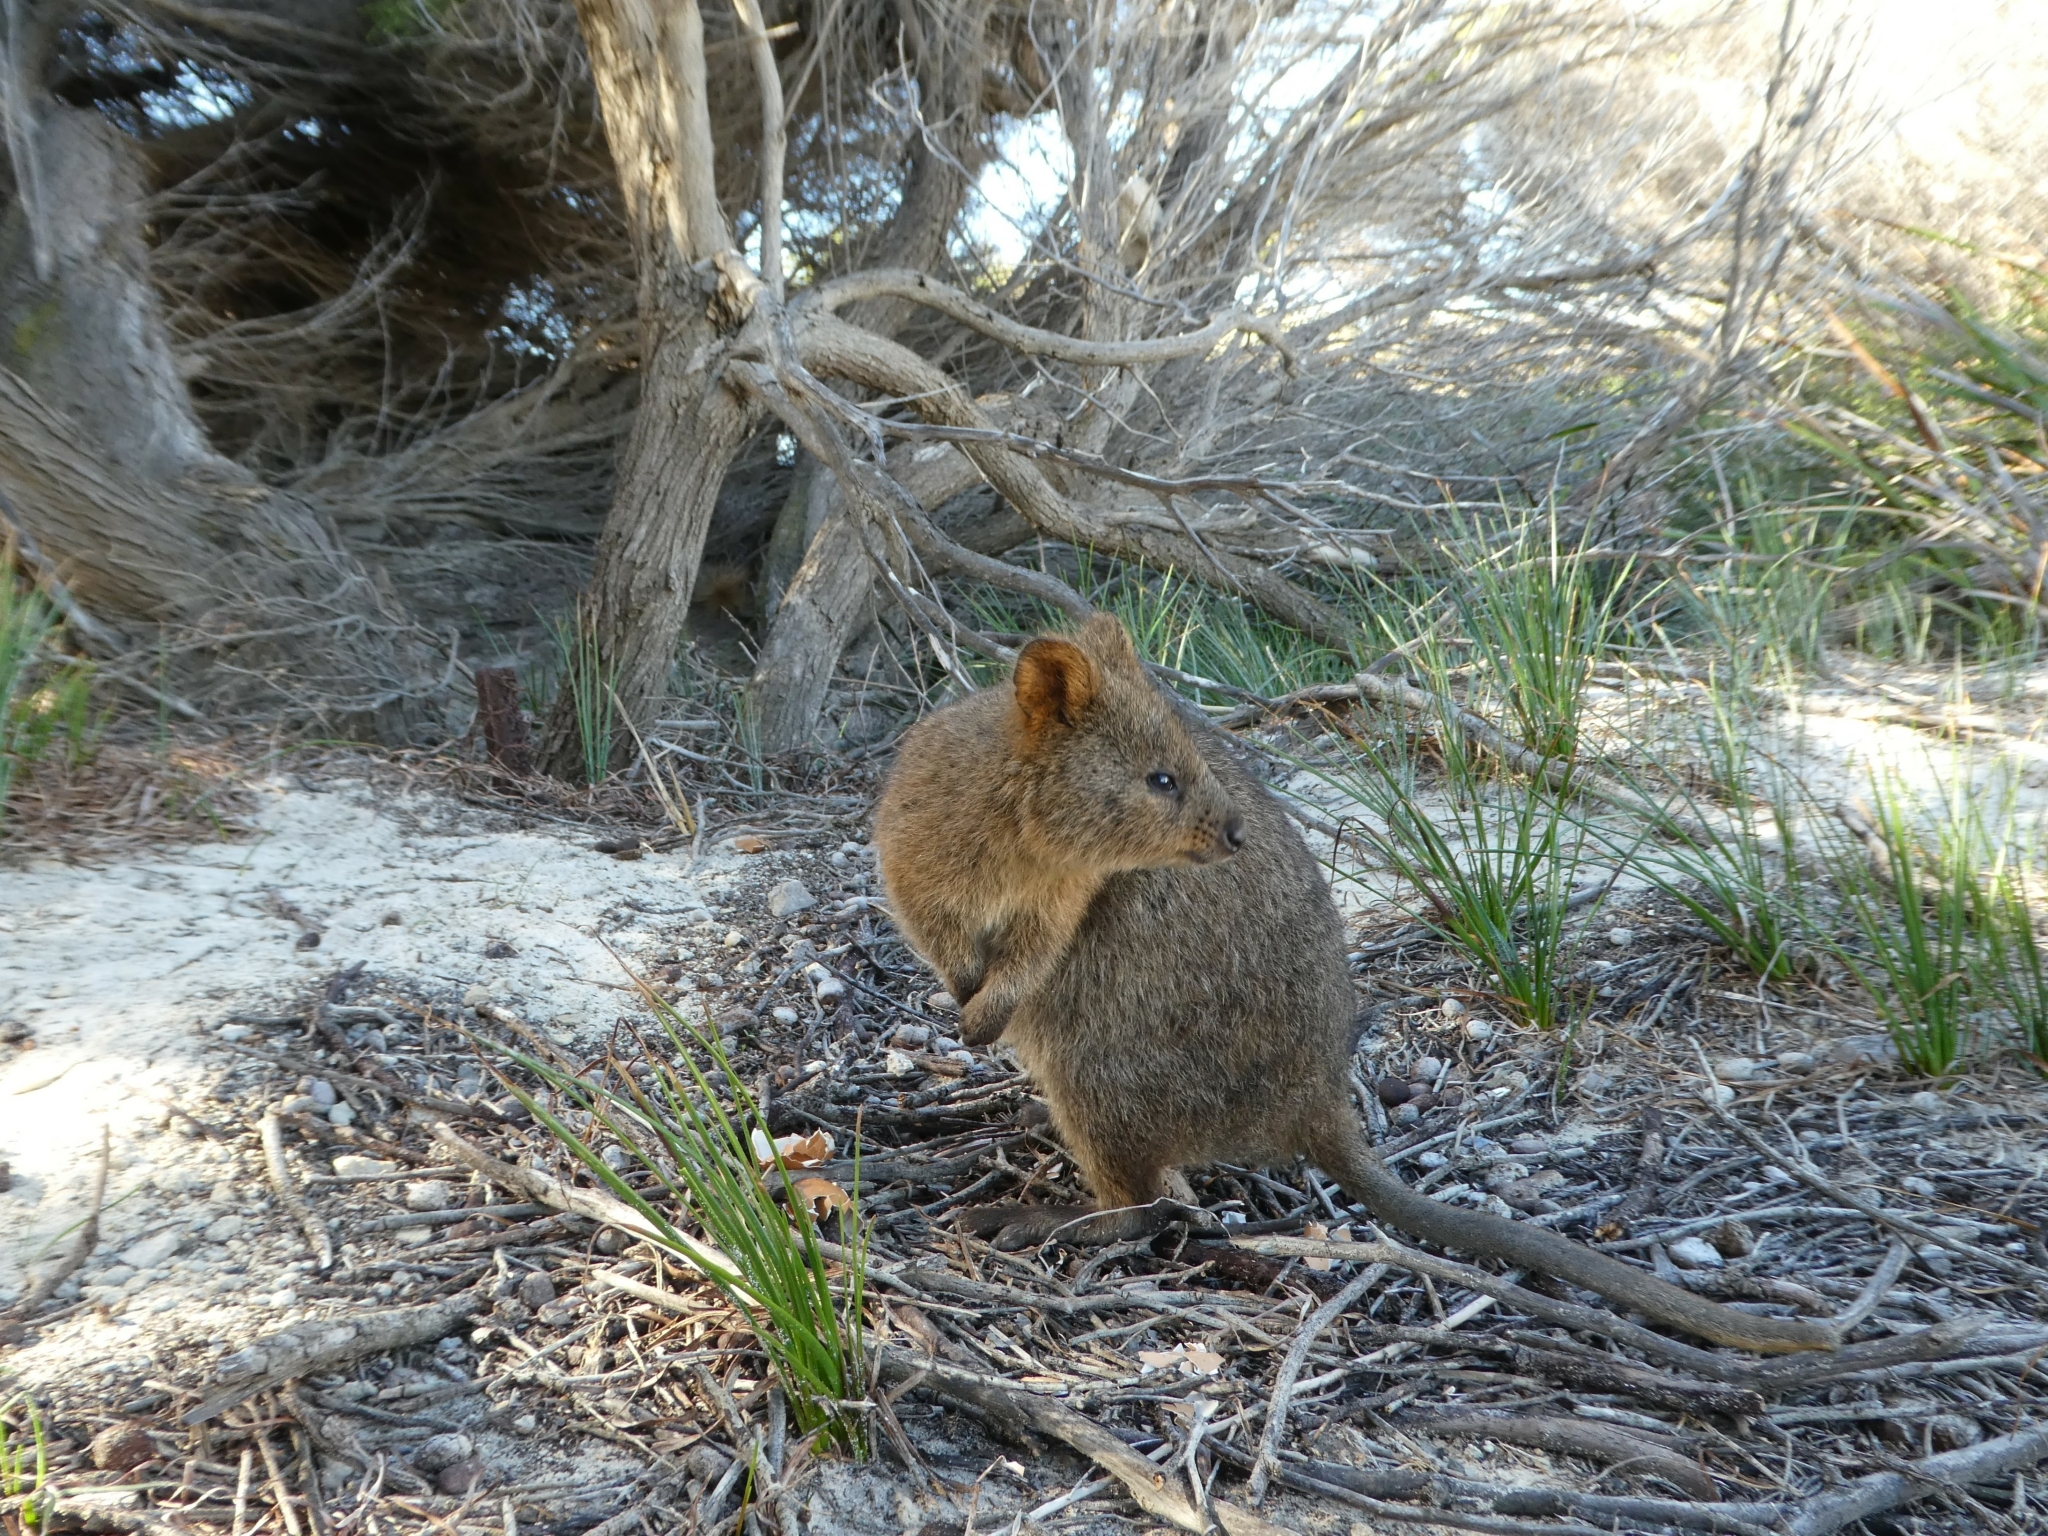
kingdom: Animalia
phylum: Chordata
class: Mammalia
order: Diprotodontia
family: Macropodidae
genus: Setonix
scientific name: Setonix brachyurus
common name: Quokka
